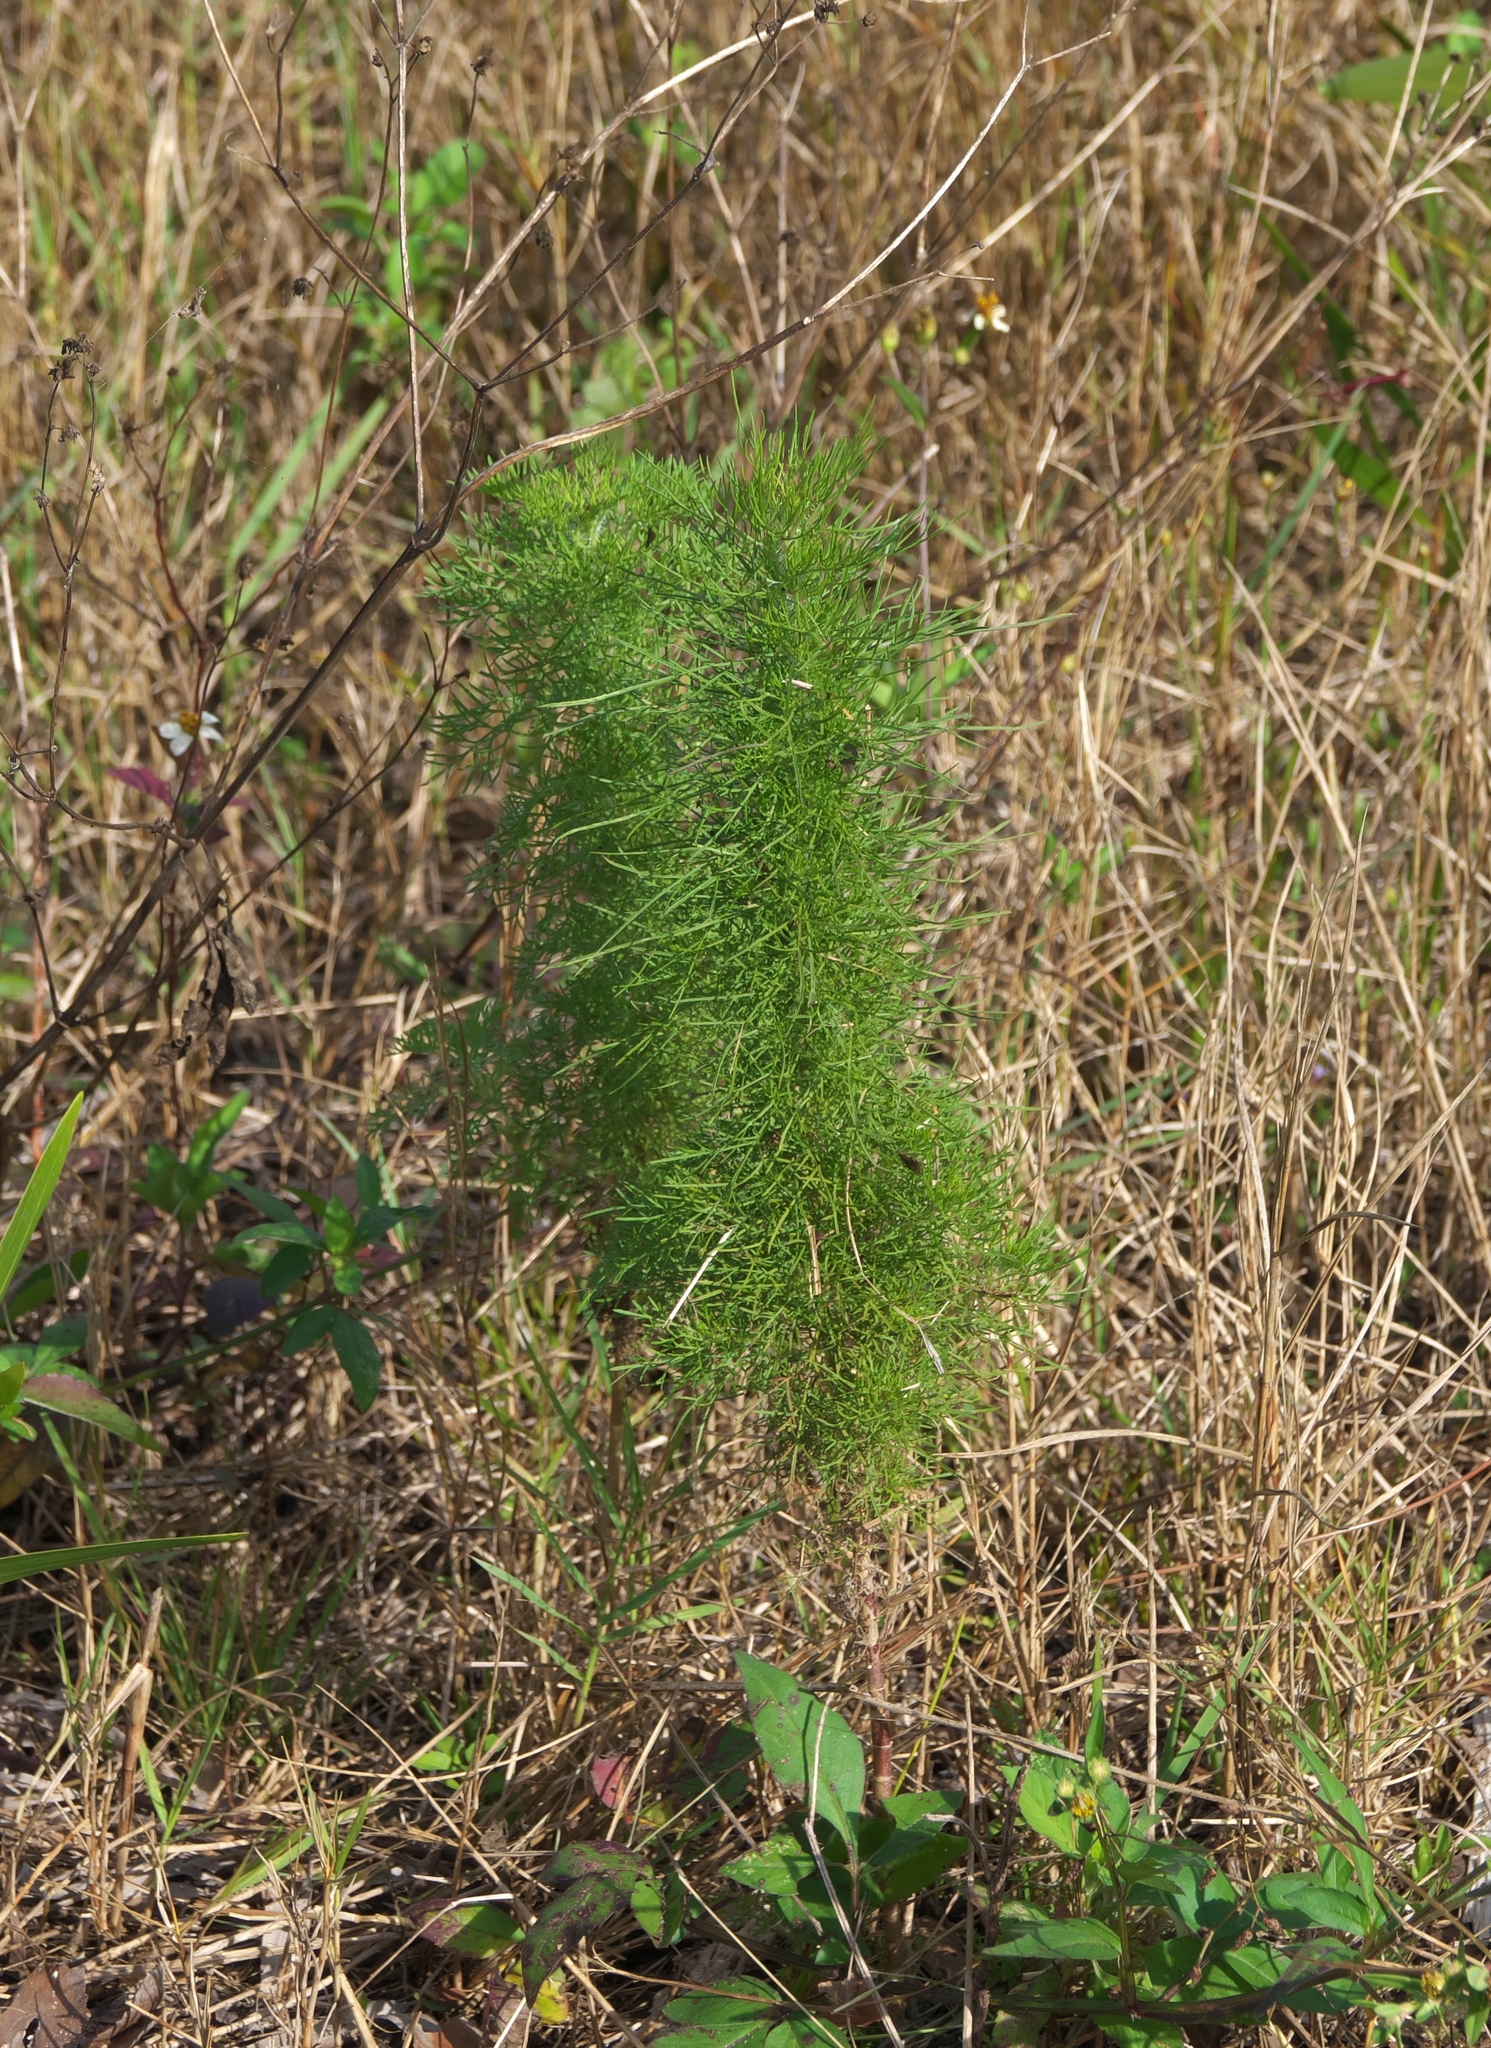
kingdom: Plantae
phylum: Tracheophyta
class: Magnoliopsida
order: Asterales
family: Asteraceae
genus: Eupatorium
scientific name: Eupatorium capillifolium
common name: Dog-fennel
